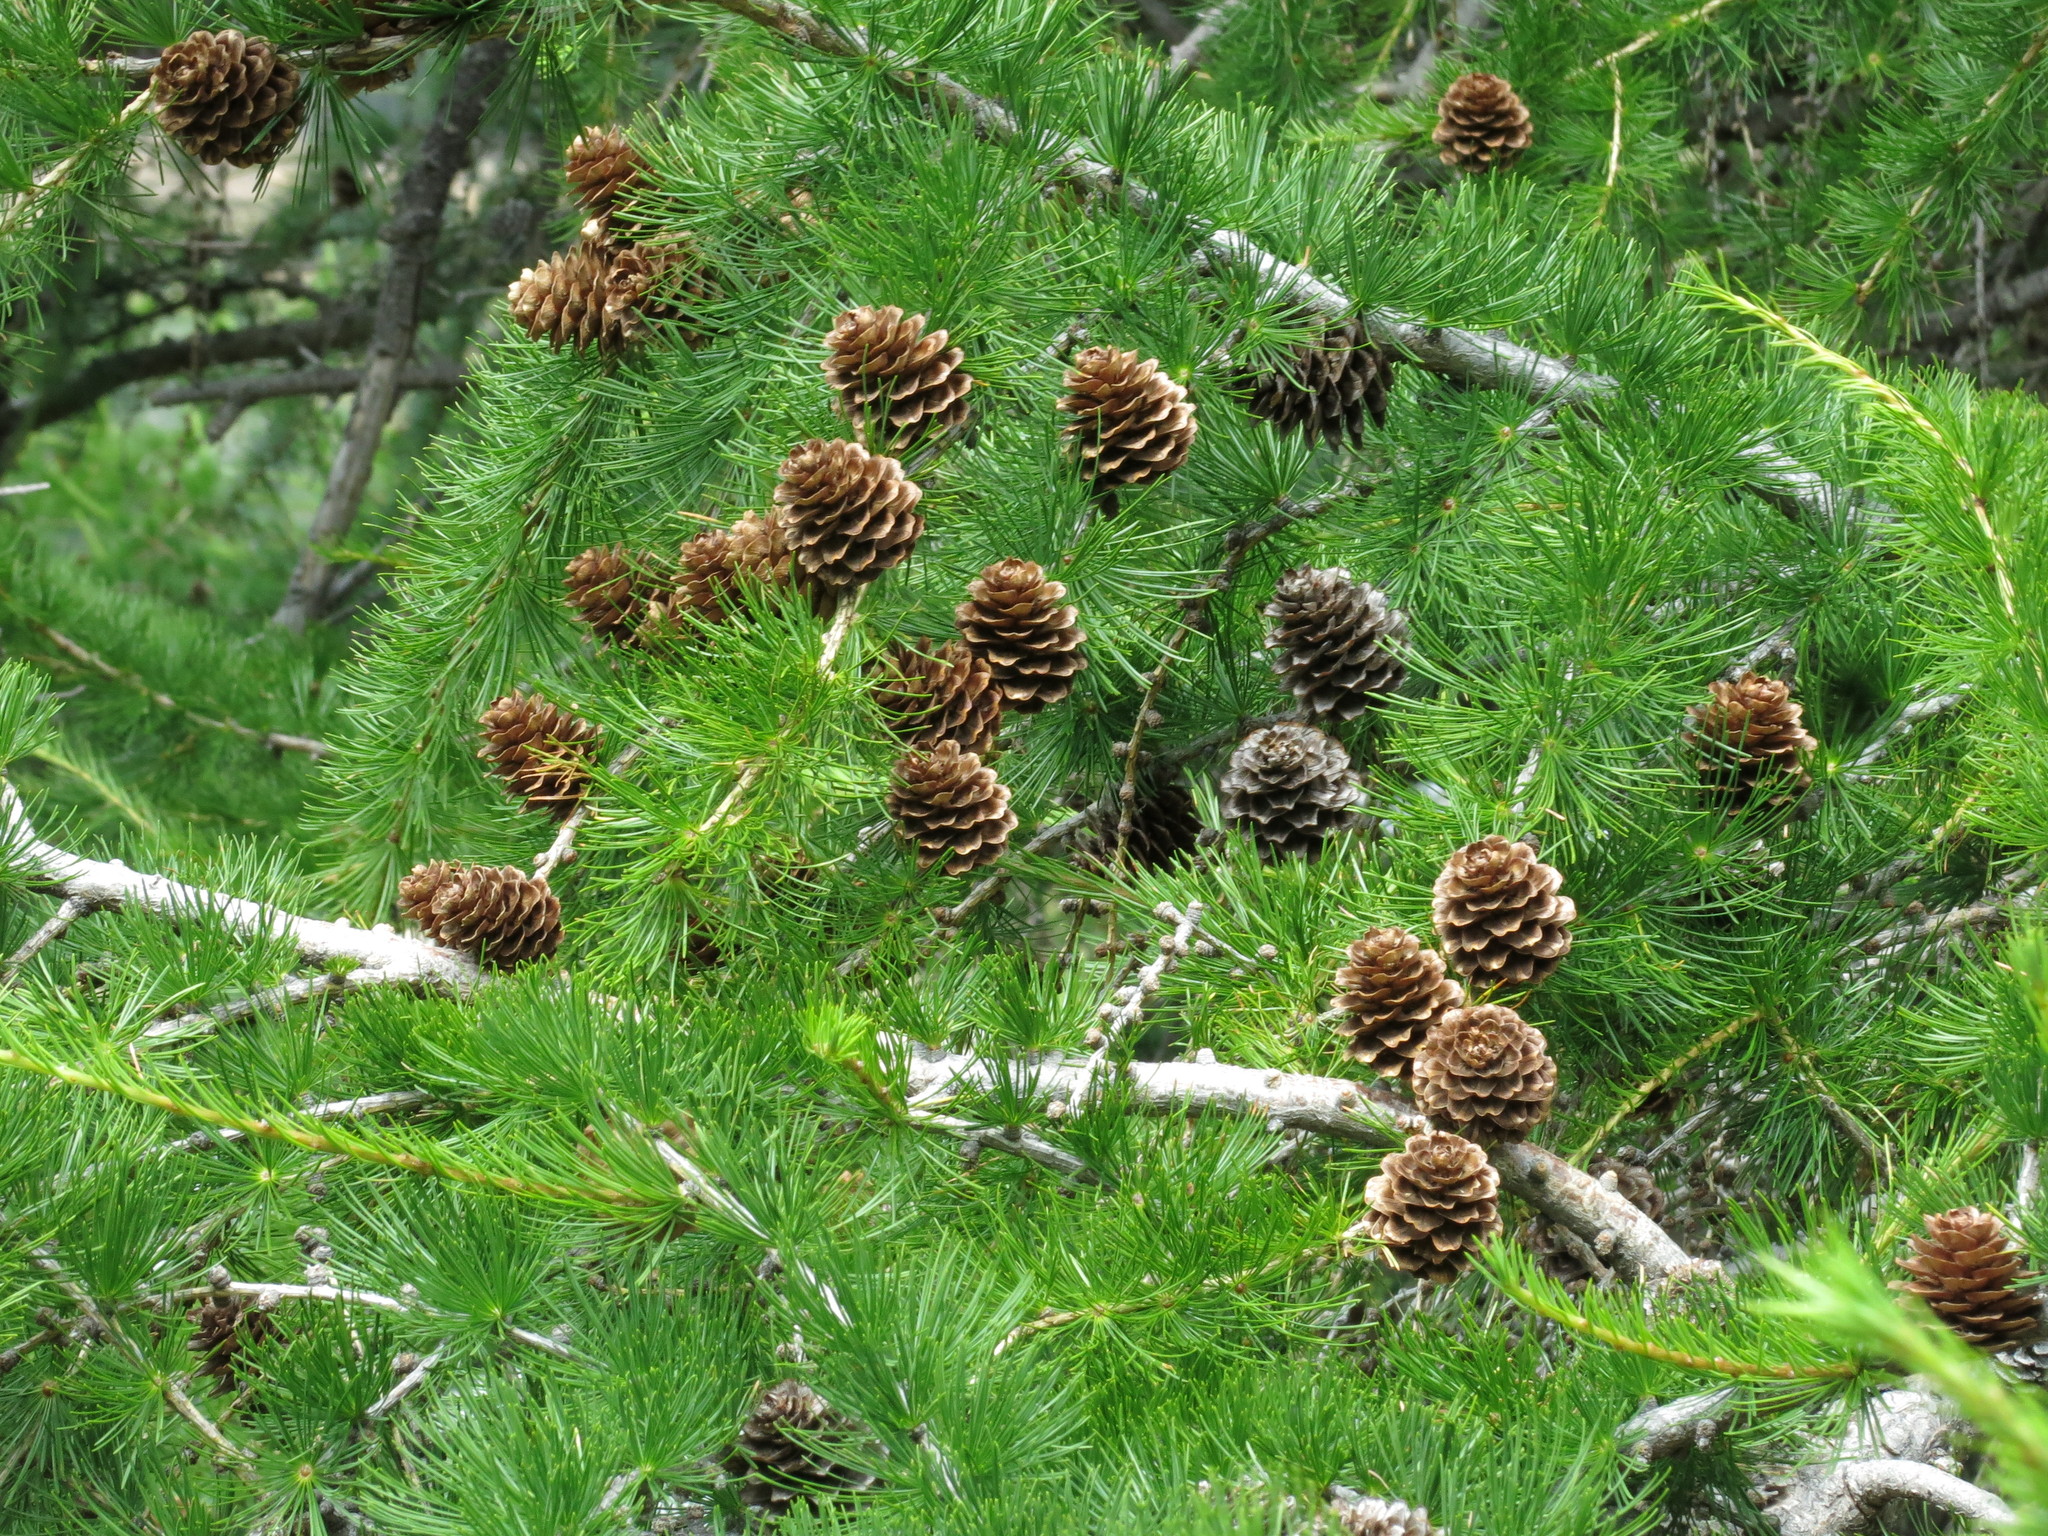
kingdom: Plantae
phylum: Tracheophyta
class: Pinopsida
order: Pinales
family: Pinaceae
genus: Larix
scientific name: Larix decidua
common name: European larch
